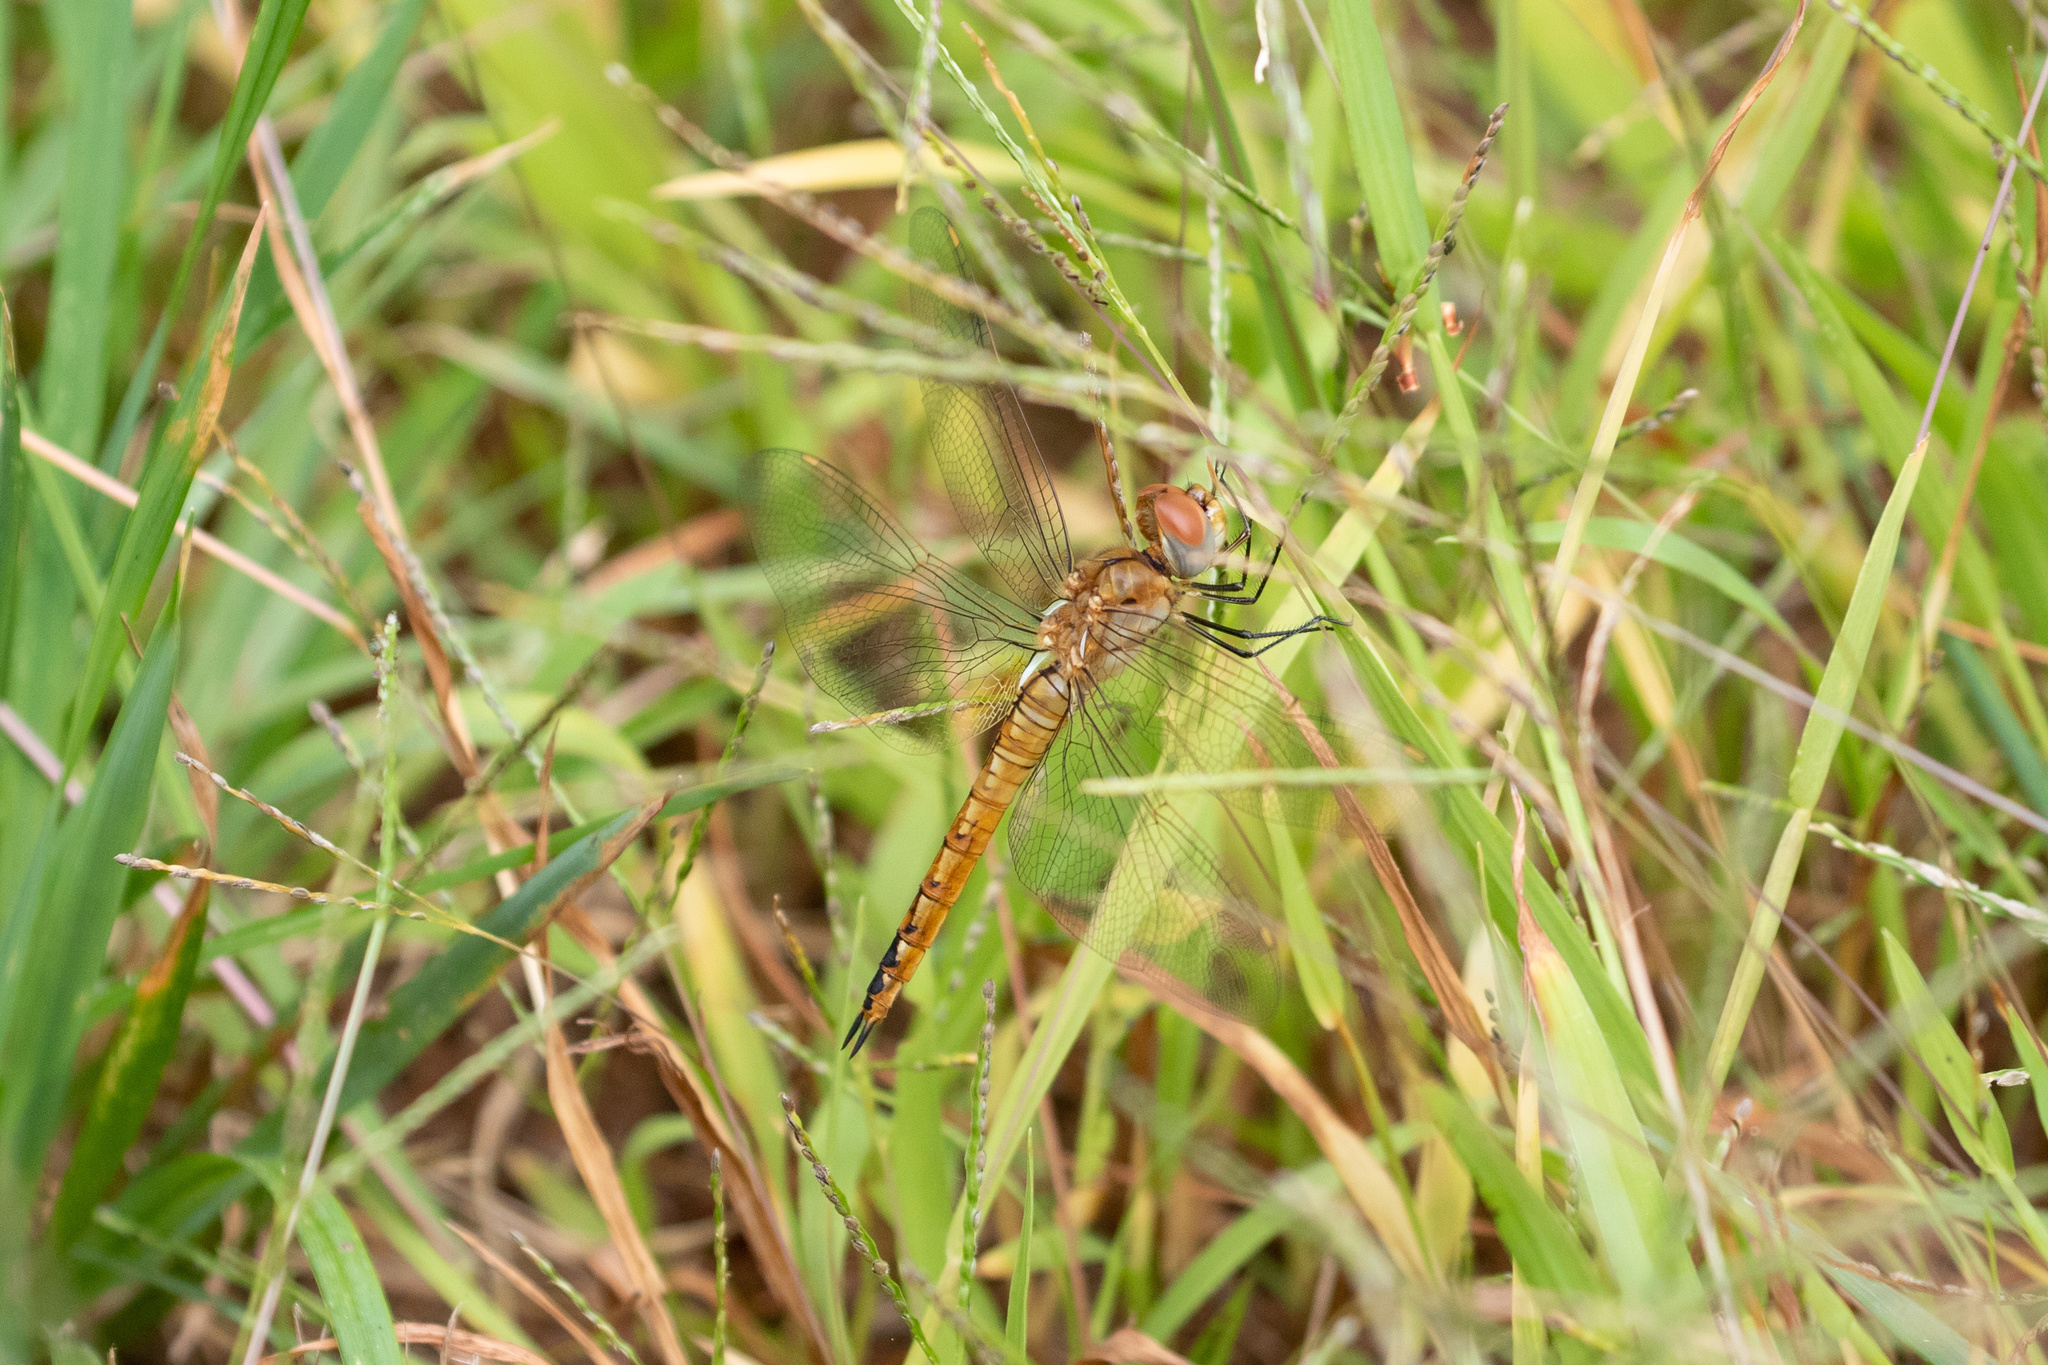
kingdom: Animalia
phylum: Arthropoda
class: Insecta
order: Odonata
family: Libellulidae
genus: Pantala
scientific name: Pantala flavescens
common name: Wandering glider
